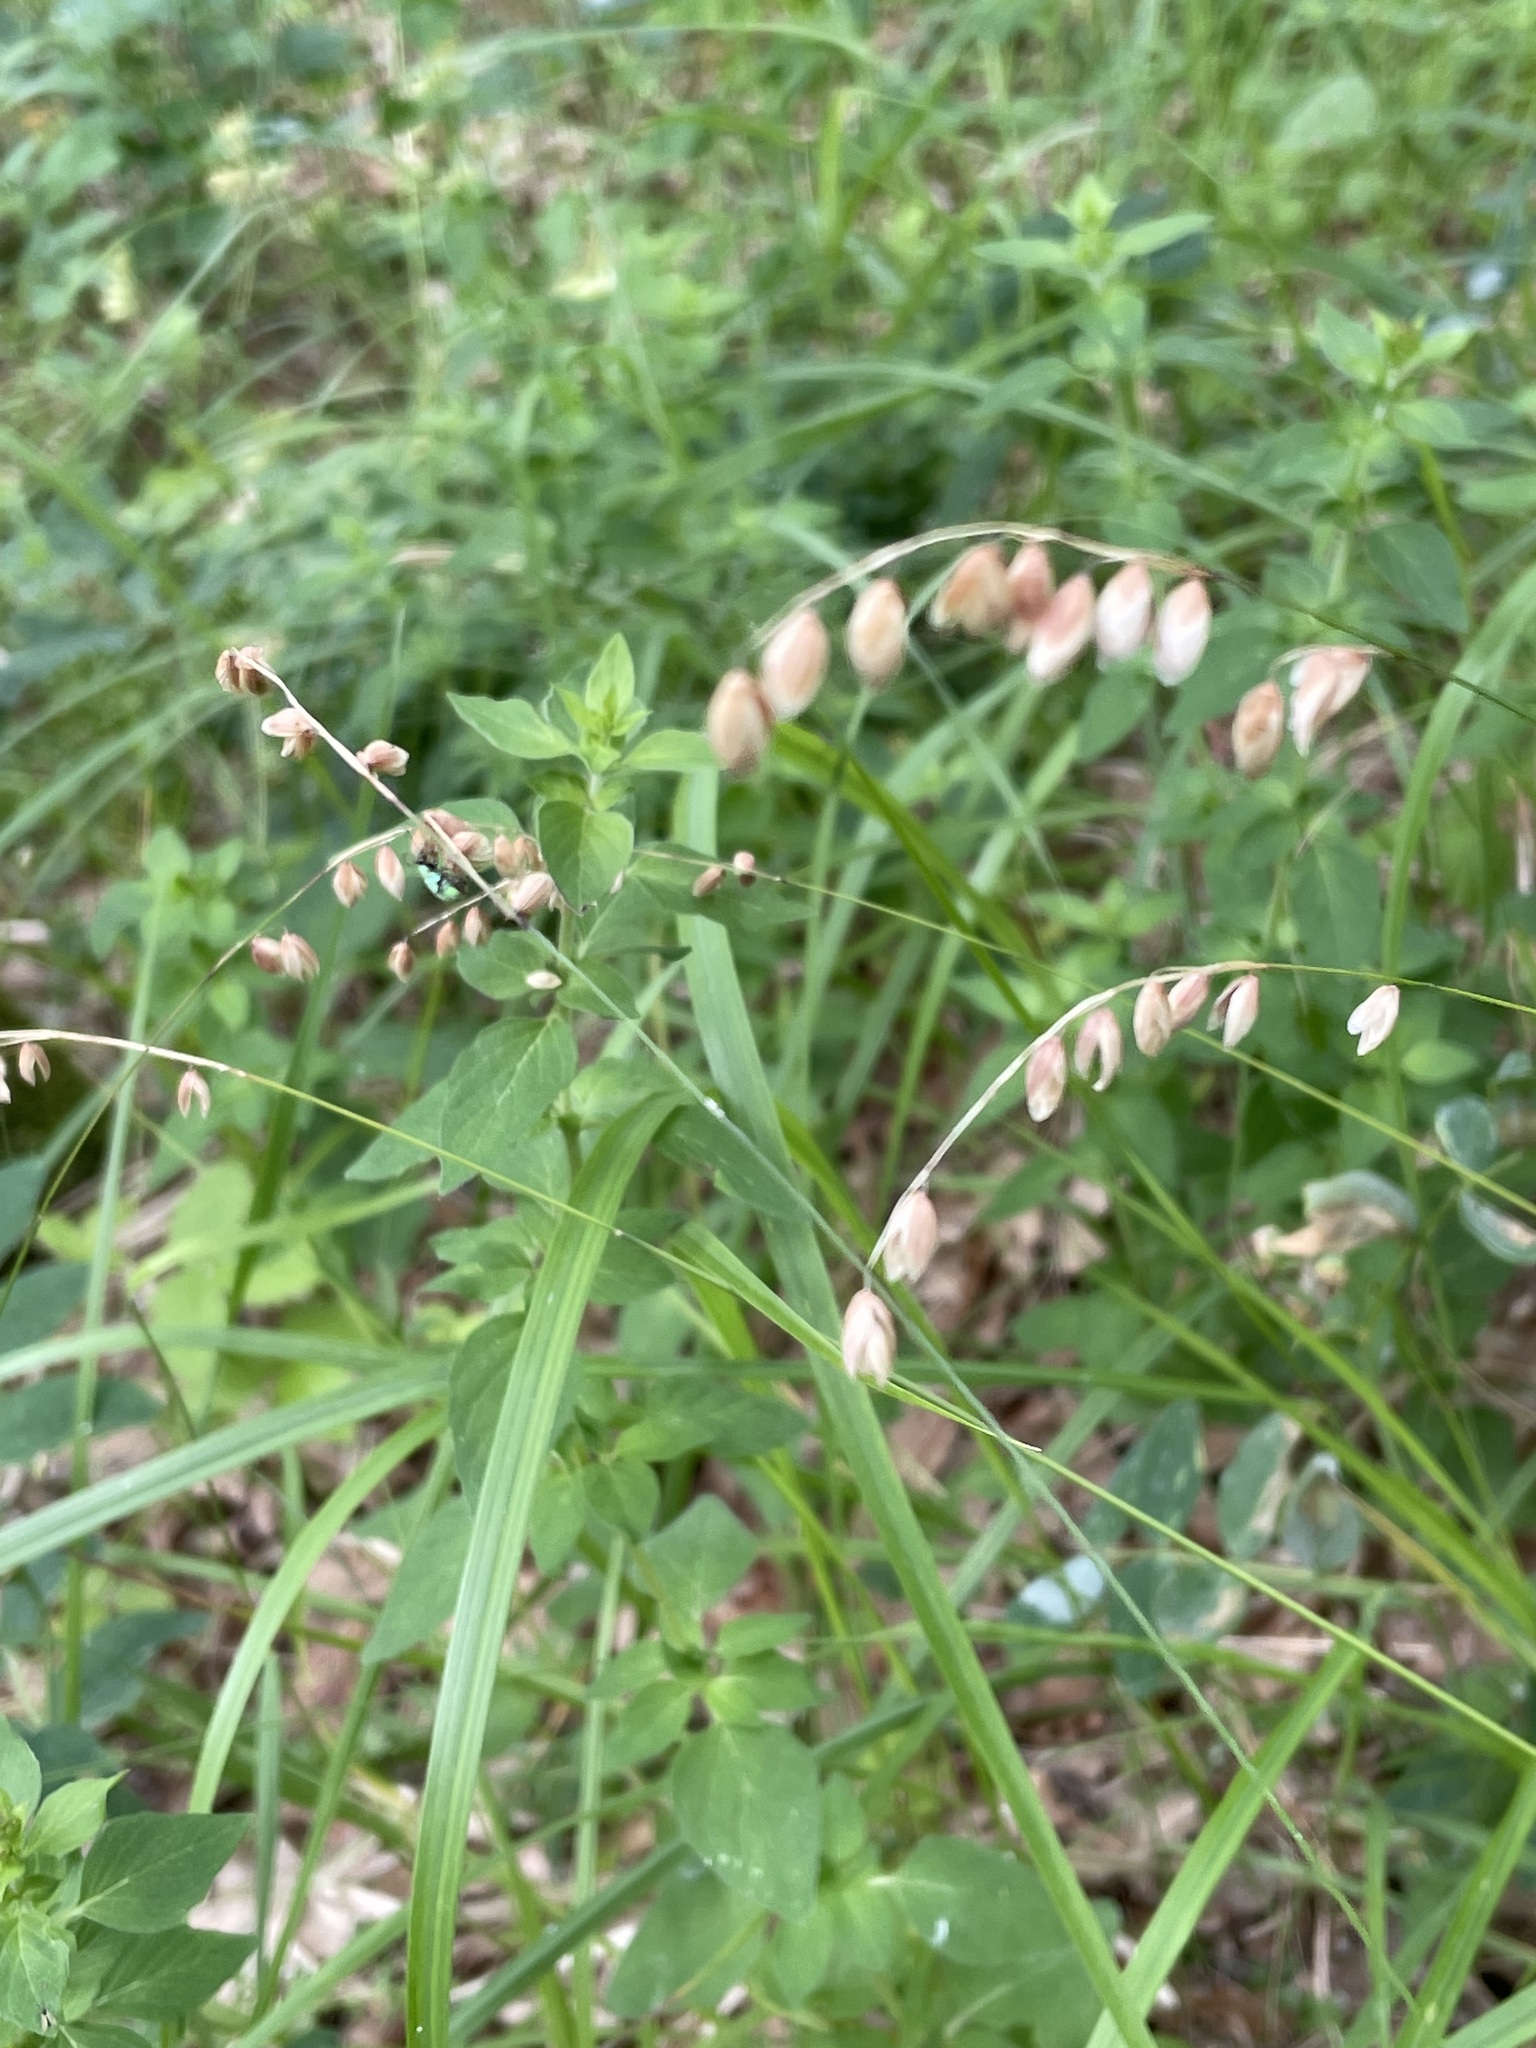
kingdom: Plantae
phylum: Tracheophyta
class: Liliopsida
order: Poales
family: Poaceae
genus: Melica
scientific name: Melica nutans
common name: Mountain melick
